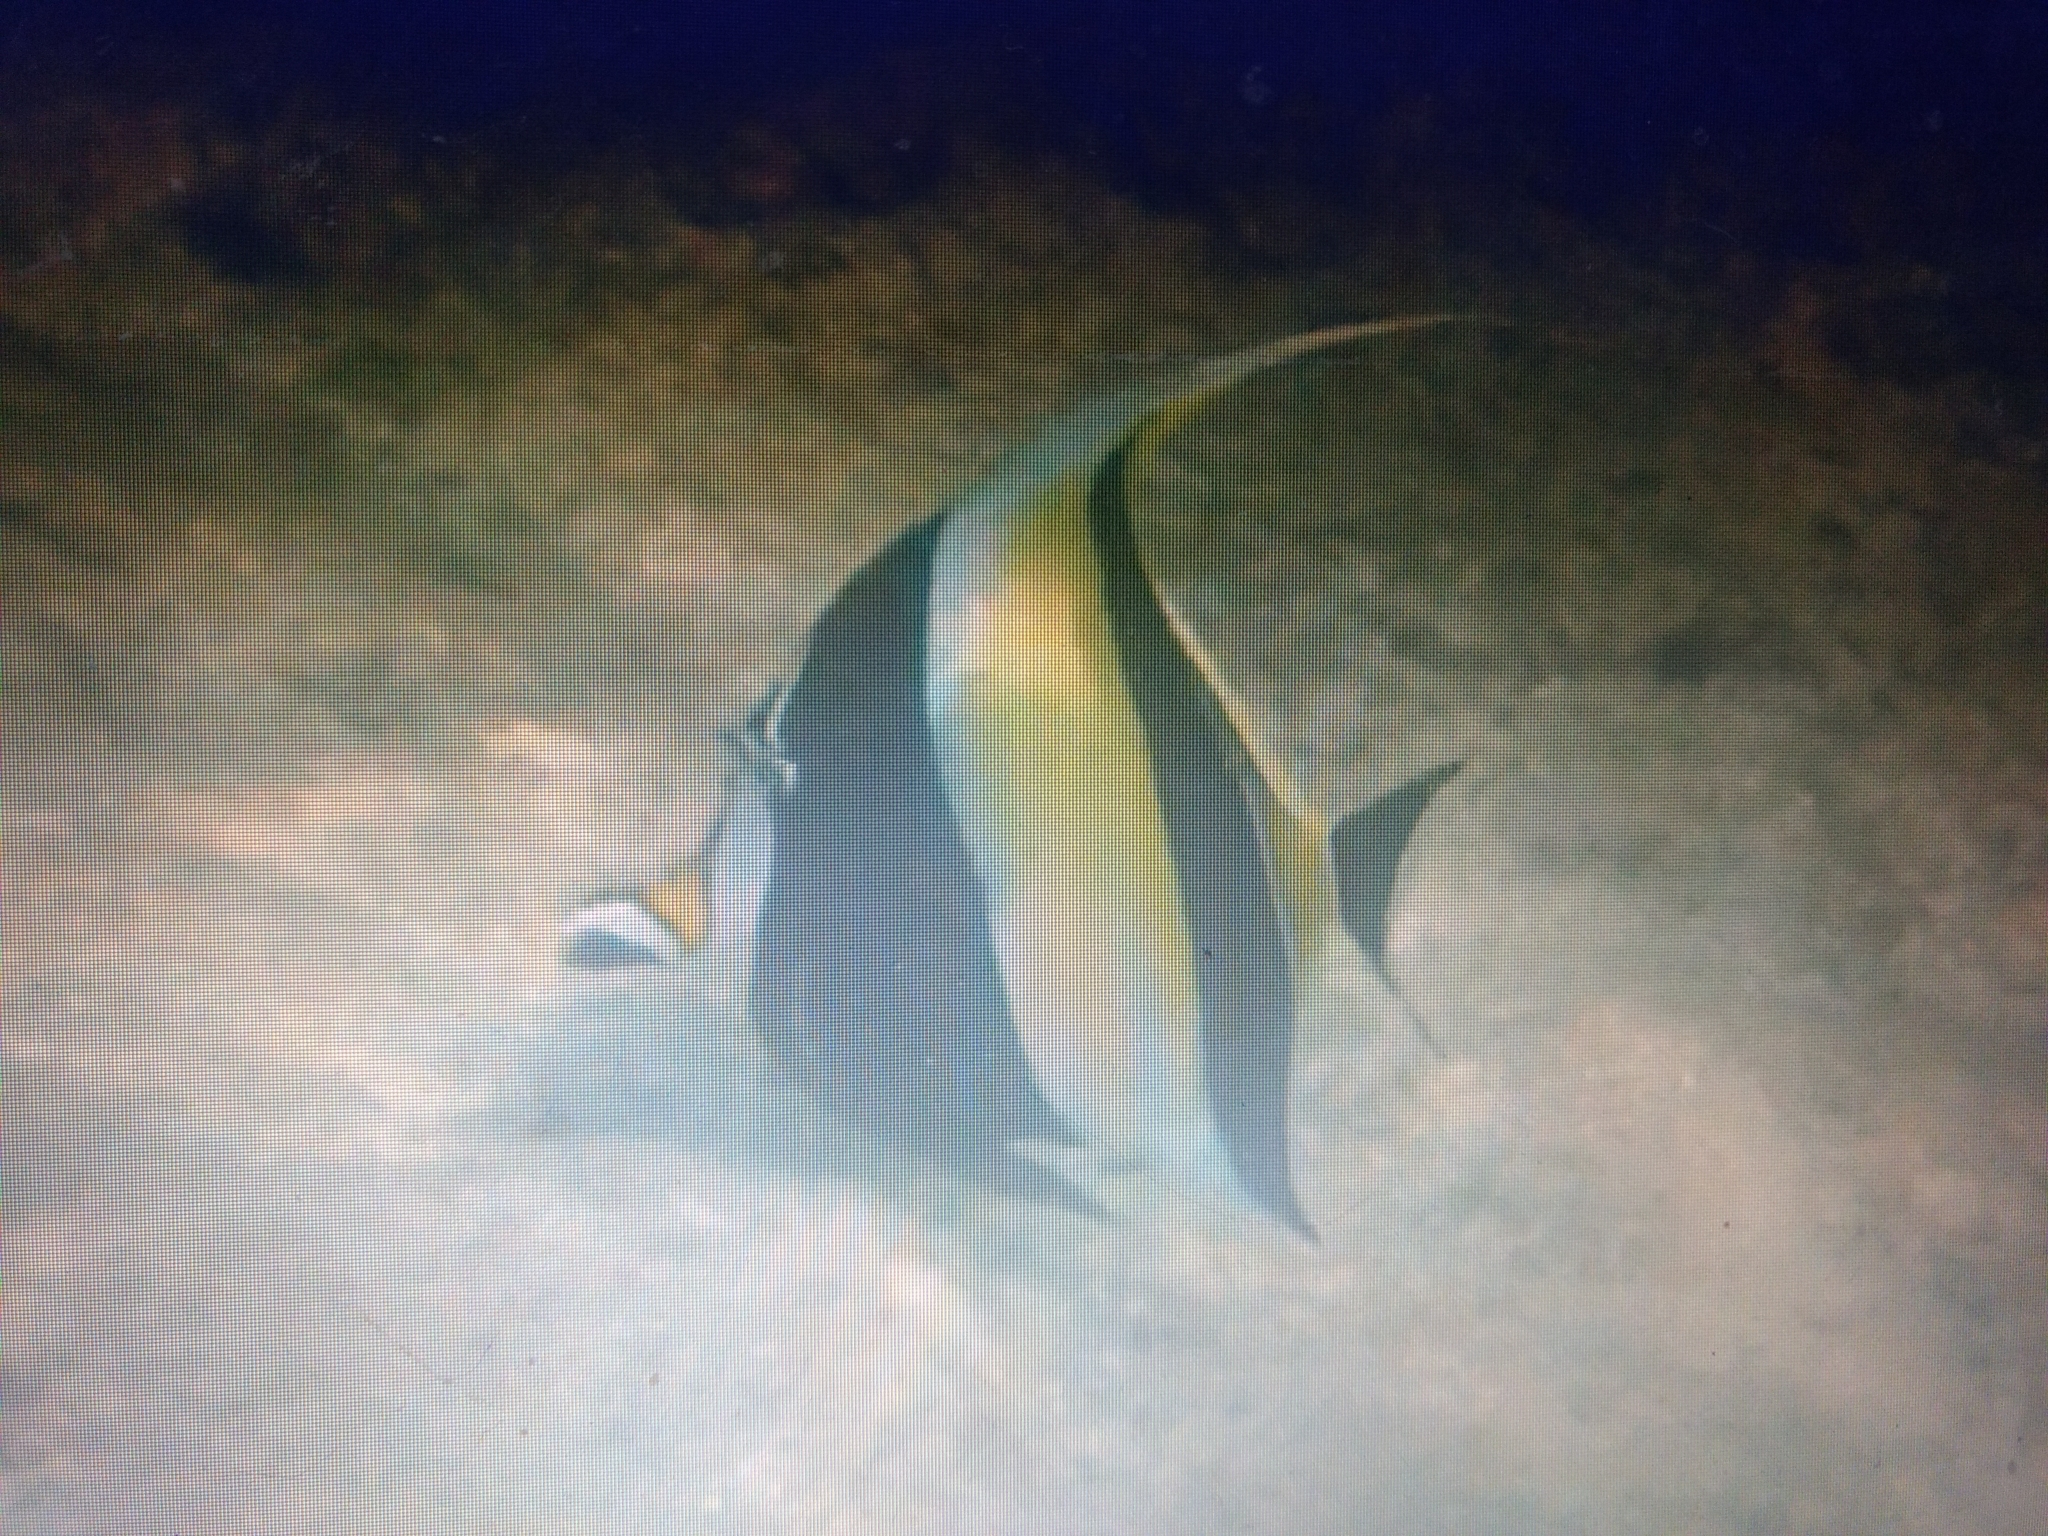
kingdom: Animalia
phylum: Chordata
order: Perciformes
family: Zanclidae
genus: Zanclus
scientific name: Zanclus cornutus
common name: Moorish idol
